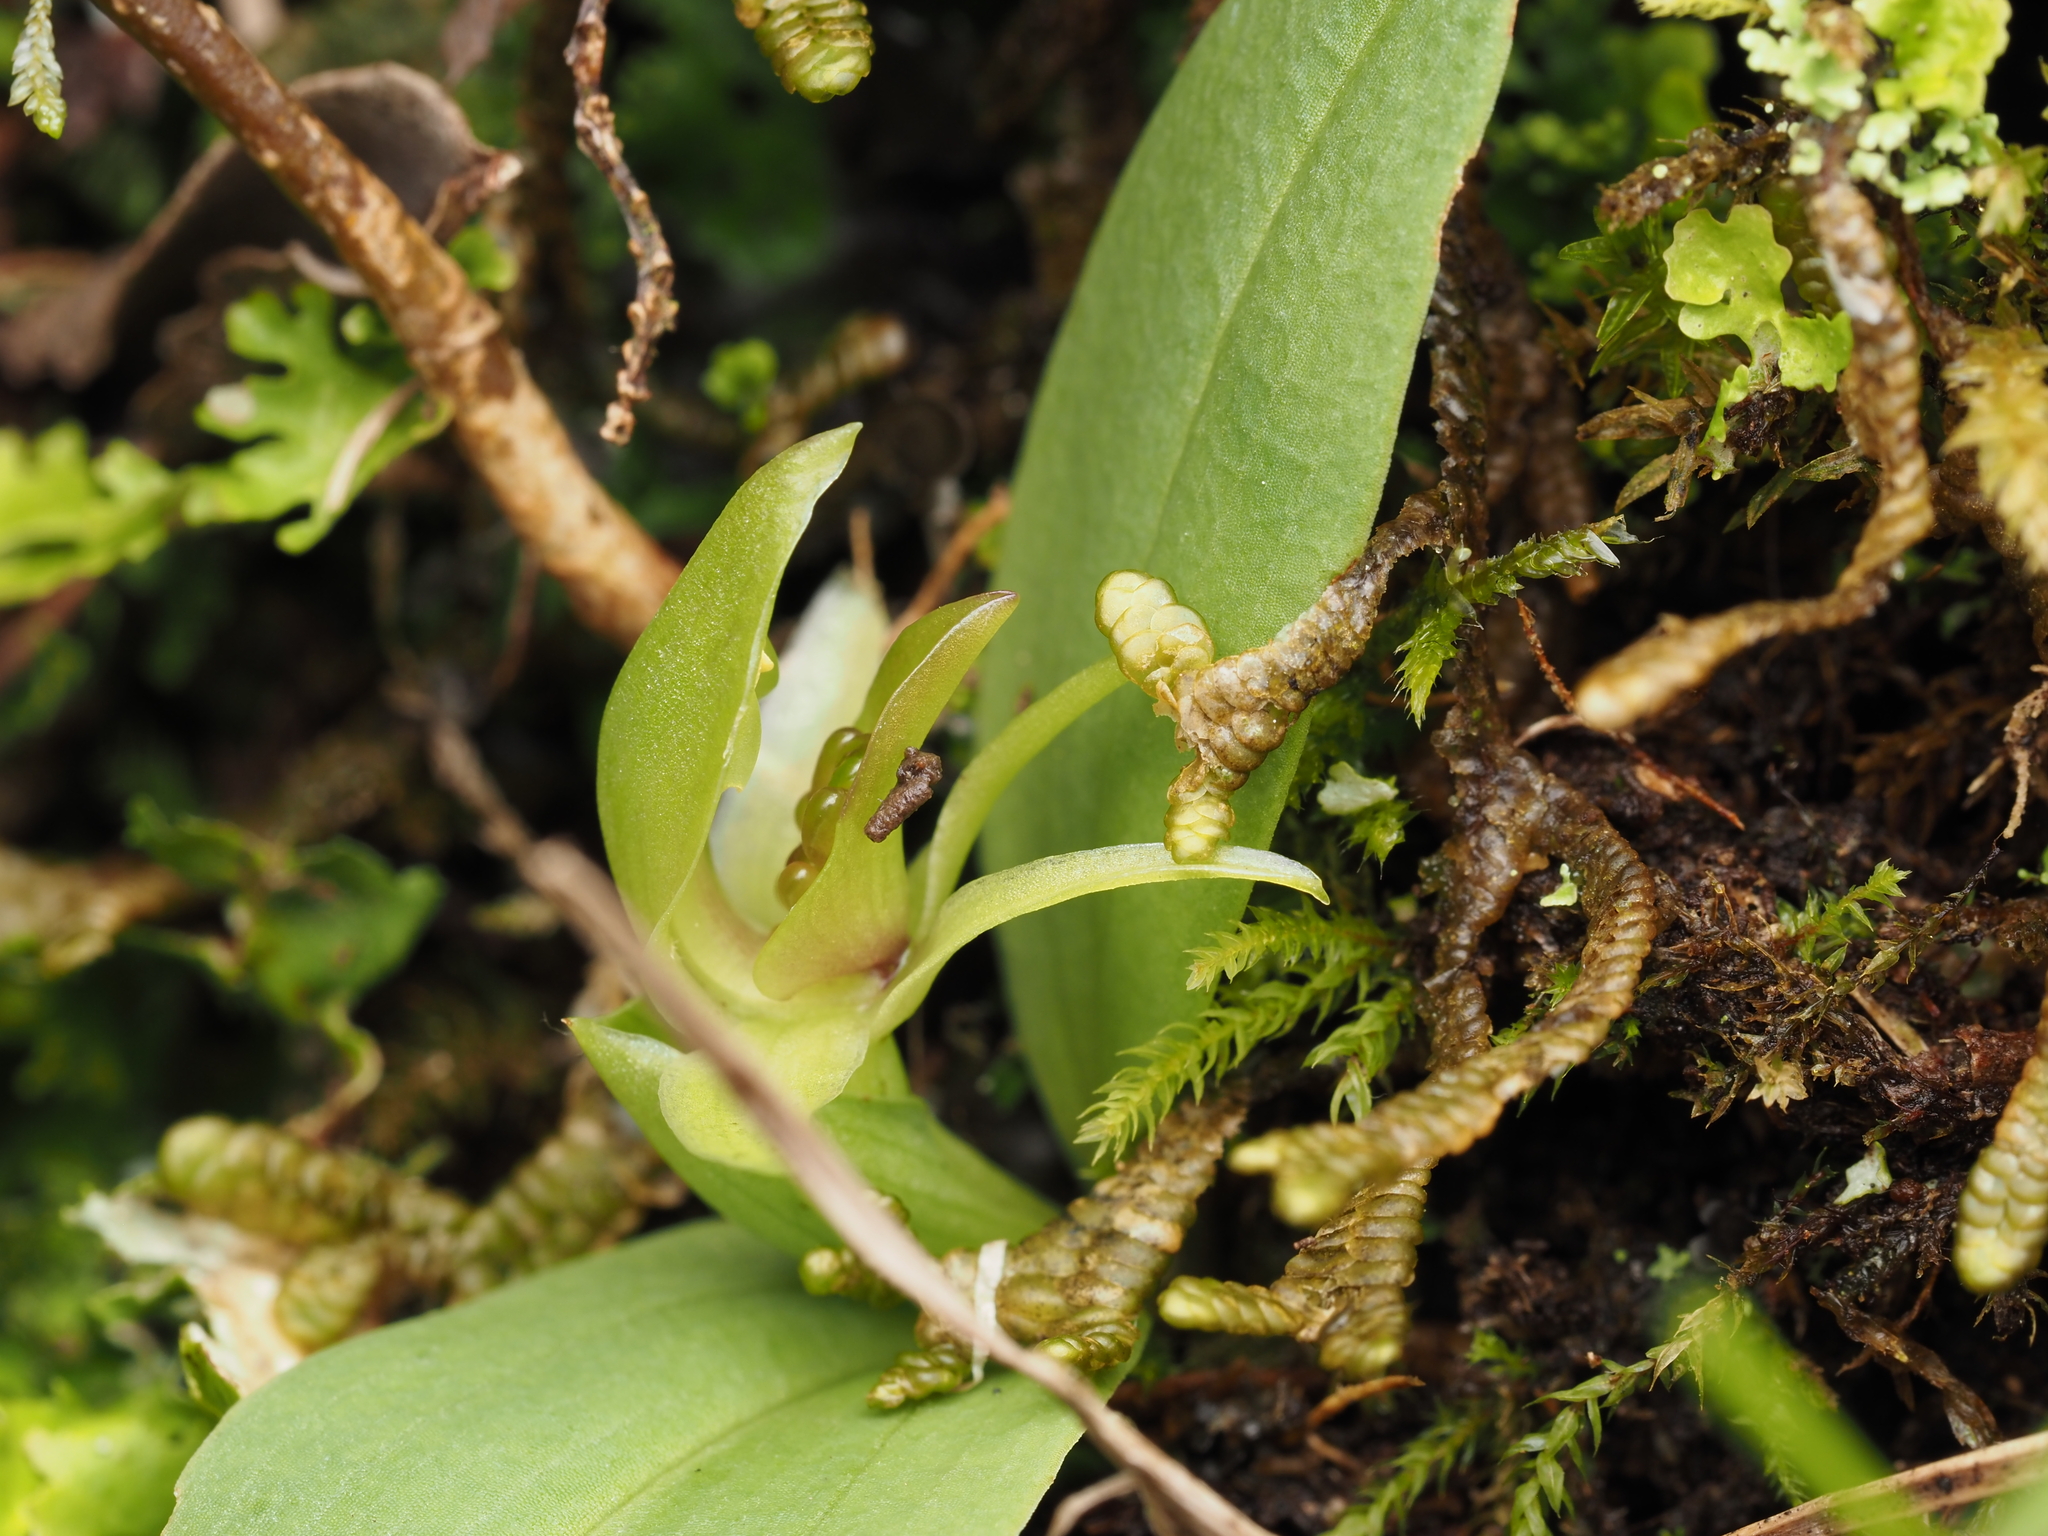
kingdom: Plantae
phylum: Tracheophyta
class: Liliopsida
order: Asparagales
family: Orchidaceae
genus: Chiloglottis
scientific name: Chiloglottis cornuta
